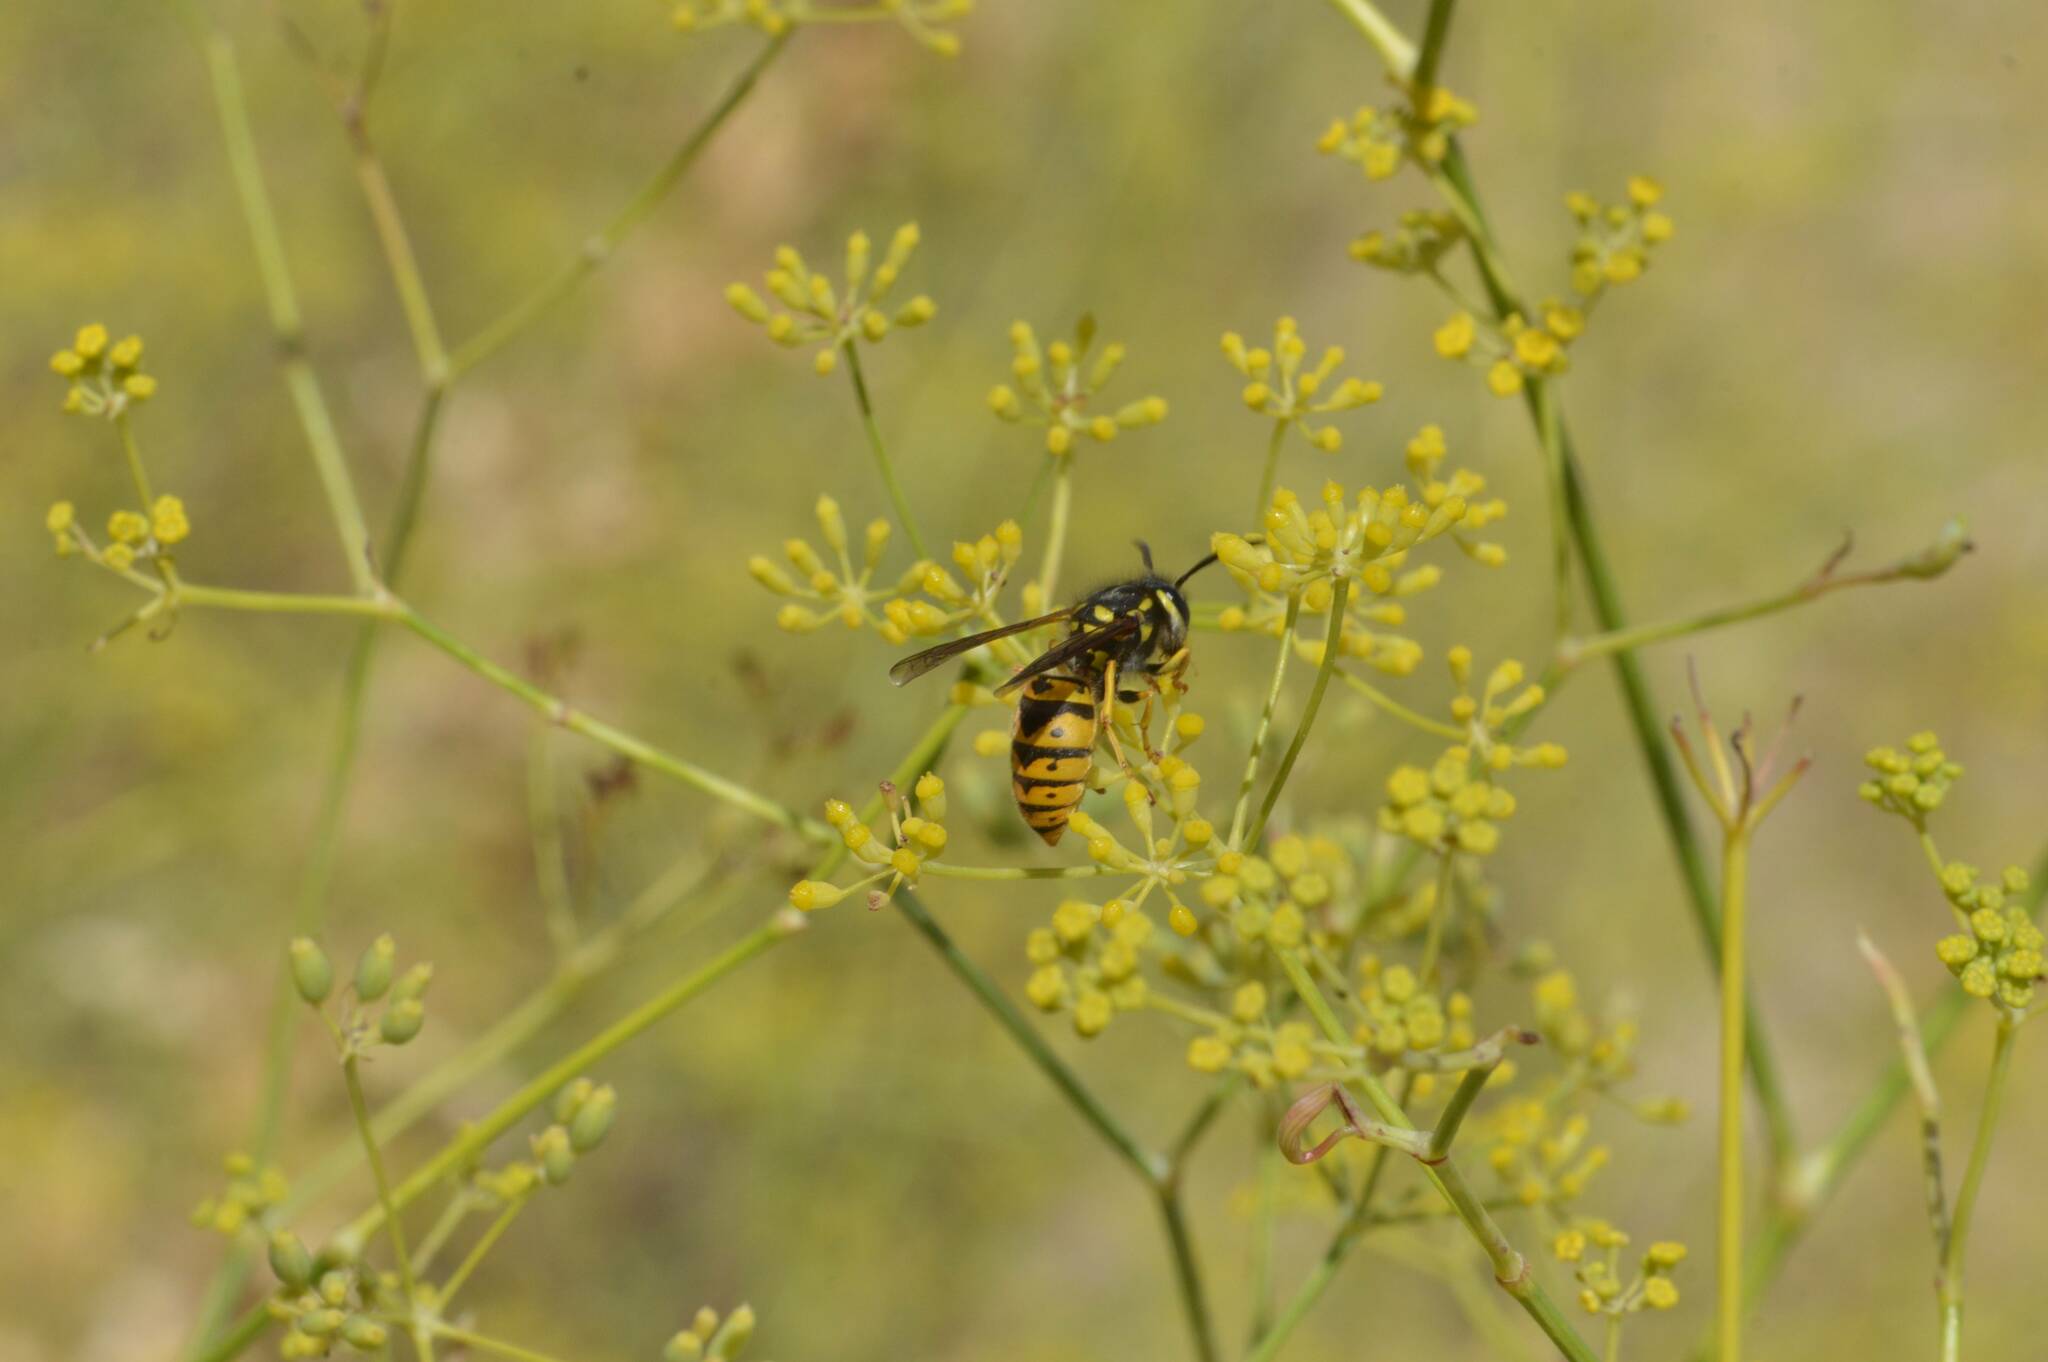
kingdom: Animalia
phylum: Arthropoda
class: Insecta
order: Hymenoptera
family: Vespidae
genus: Vespula
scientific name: Vespula germanica
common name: German wasp
